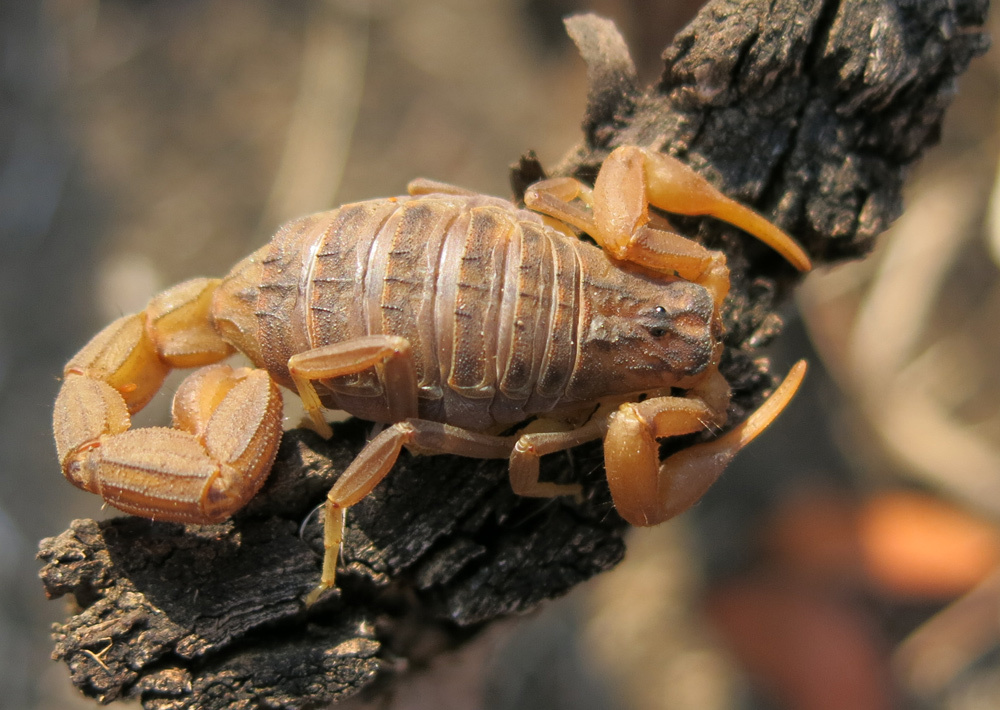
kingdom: Animalia
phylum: Arthropoda
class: Arachnida
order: Scorpiones
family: Buthidae
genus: Hottentotta
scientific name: Hottentotta trilineatus
